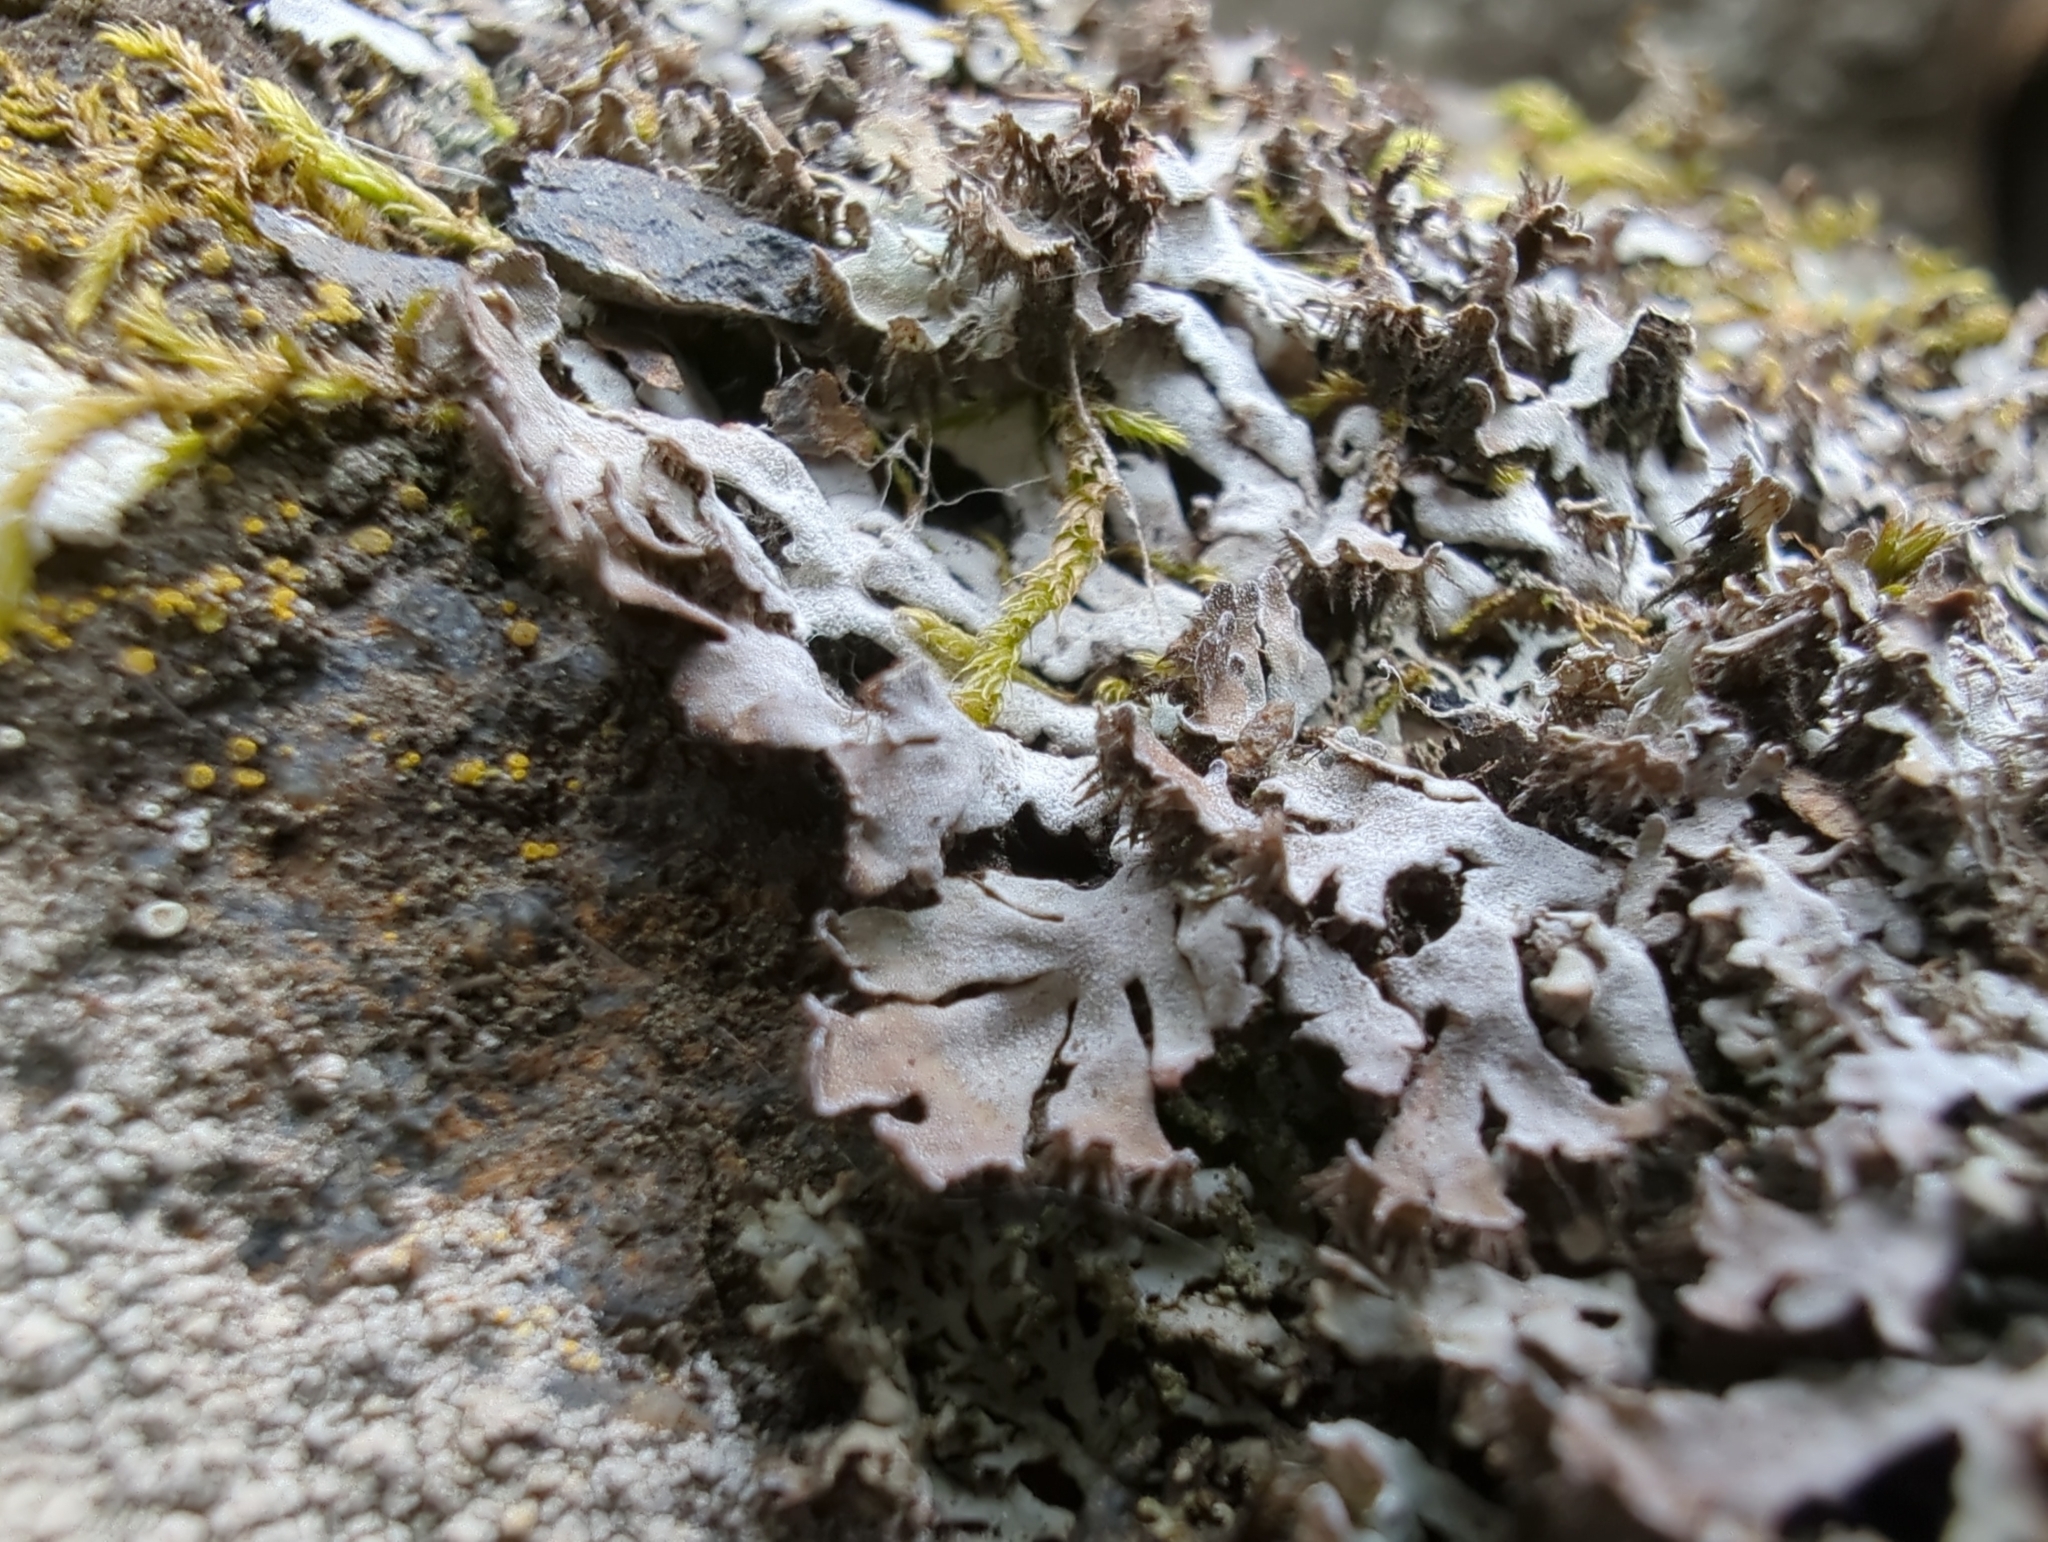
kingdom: Fungi
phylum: Ascomycota
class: Lecanoromycetes
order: Caliciales
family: Physciaceae
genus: Physconia
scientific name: Physconia muscigena
